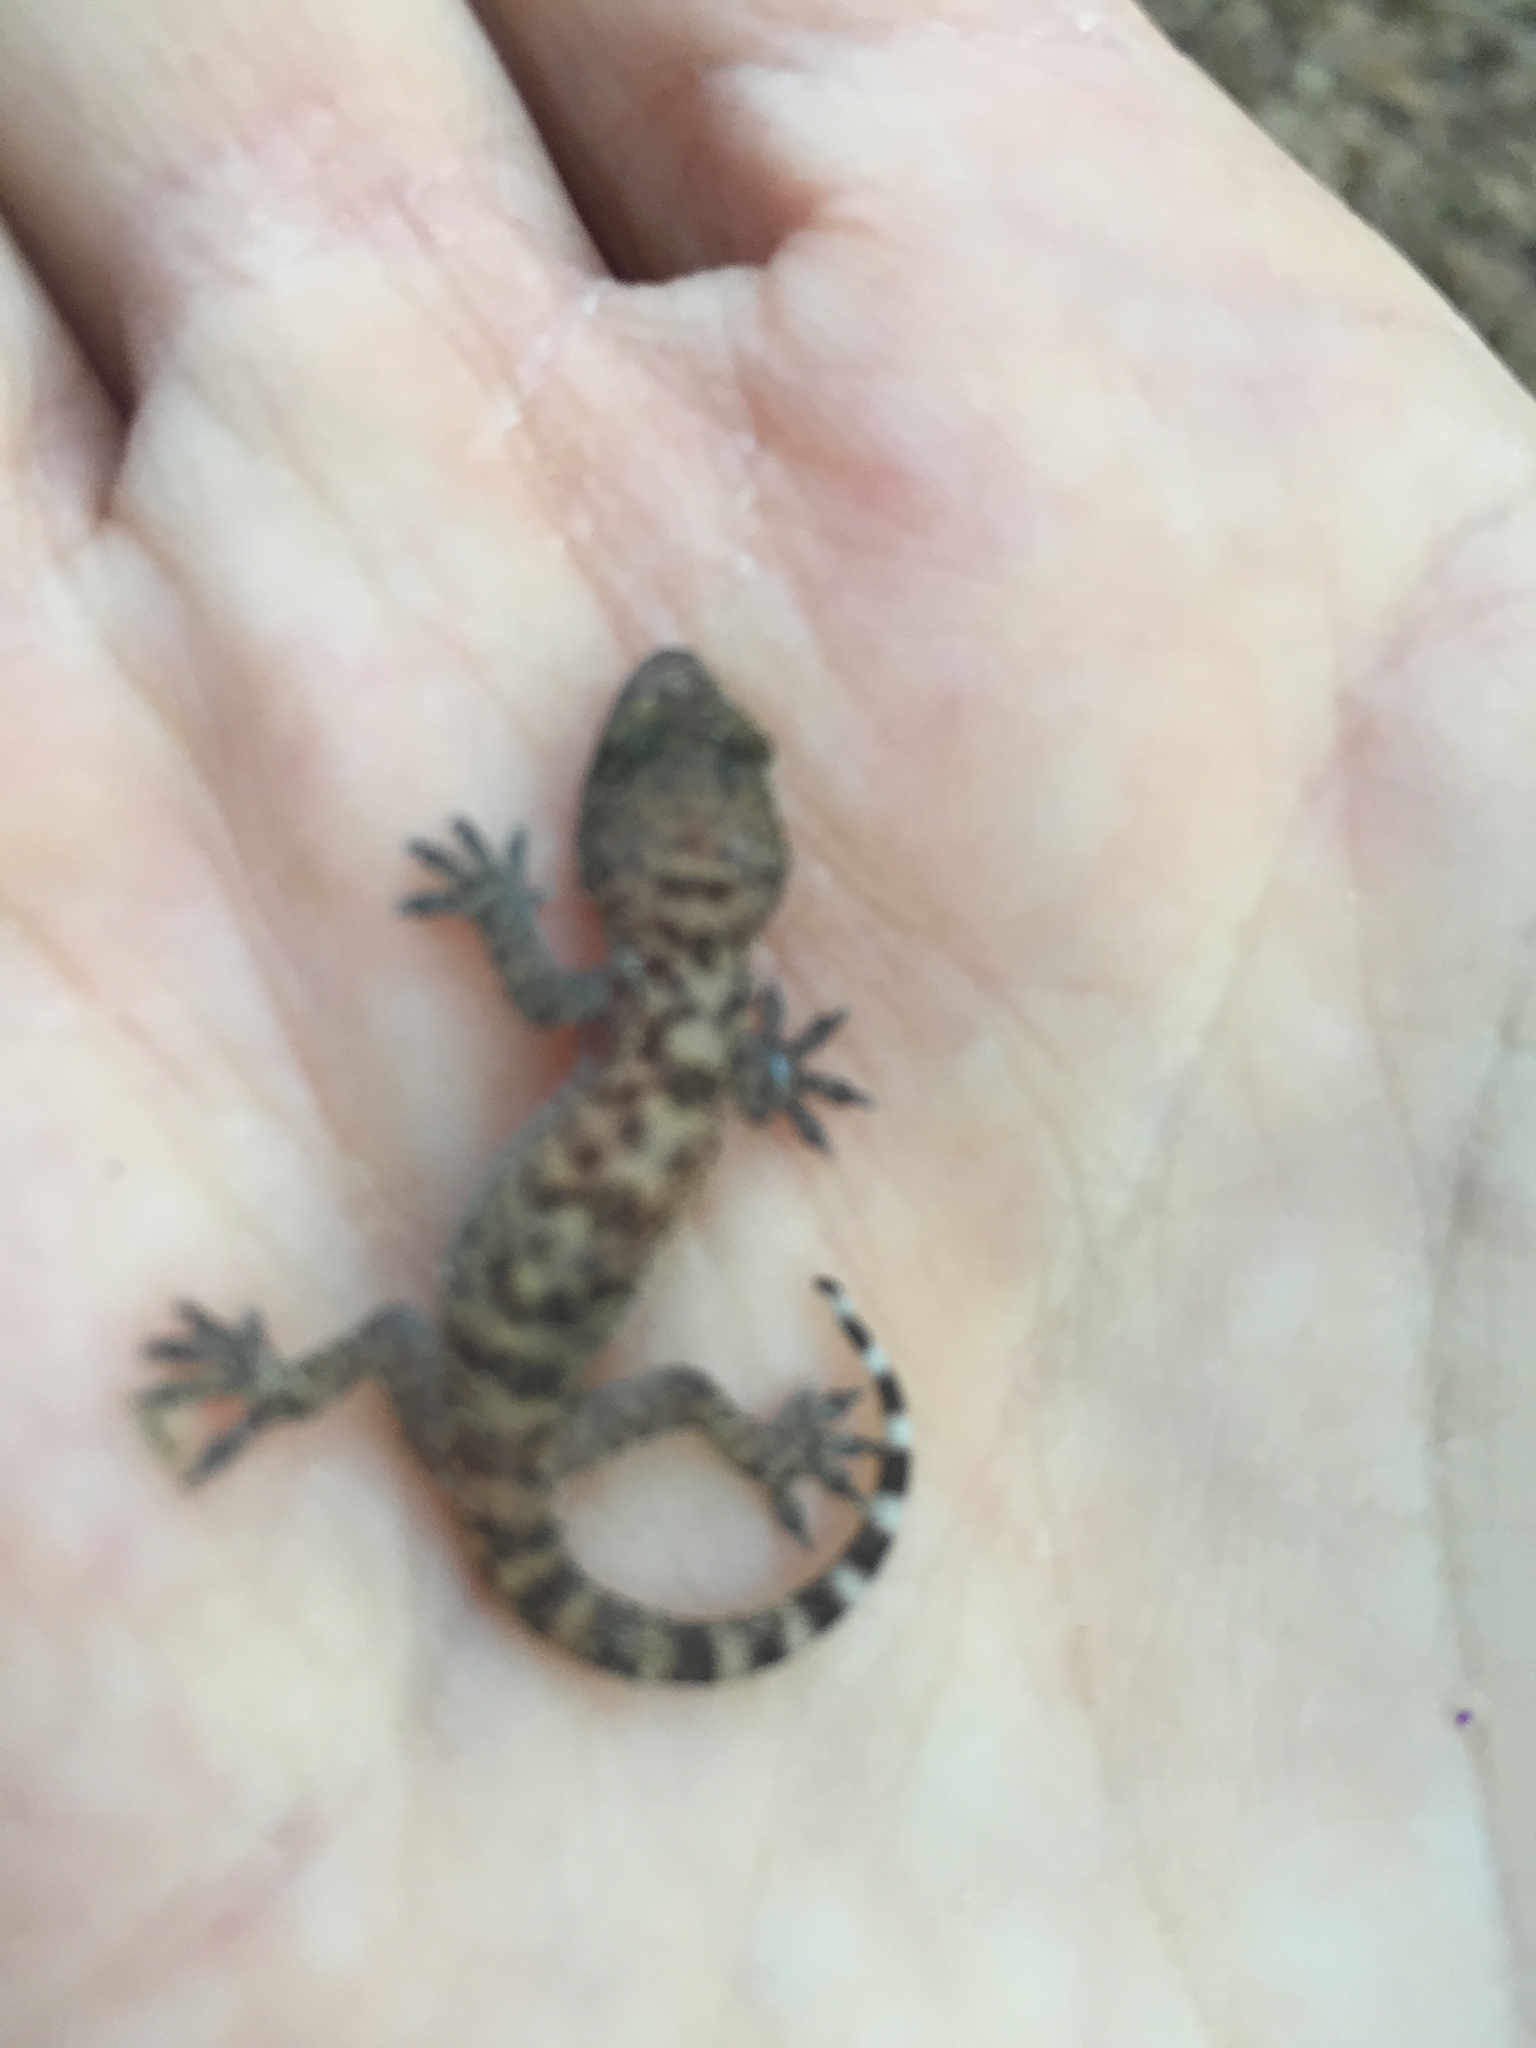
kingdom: Animalia
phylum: Chordata
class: Squamata
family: Gekkonidae
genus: Hemidactylus
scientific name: Hemidactylus turcicus
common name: Turkish gecko
